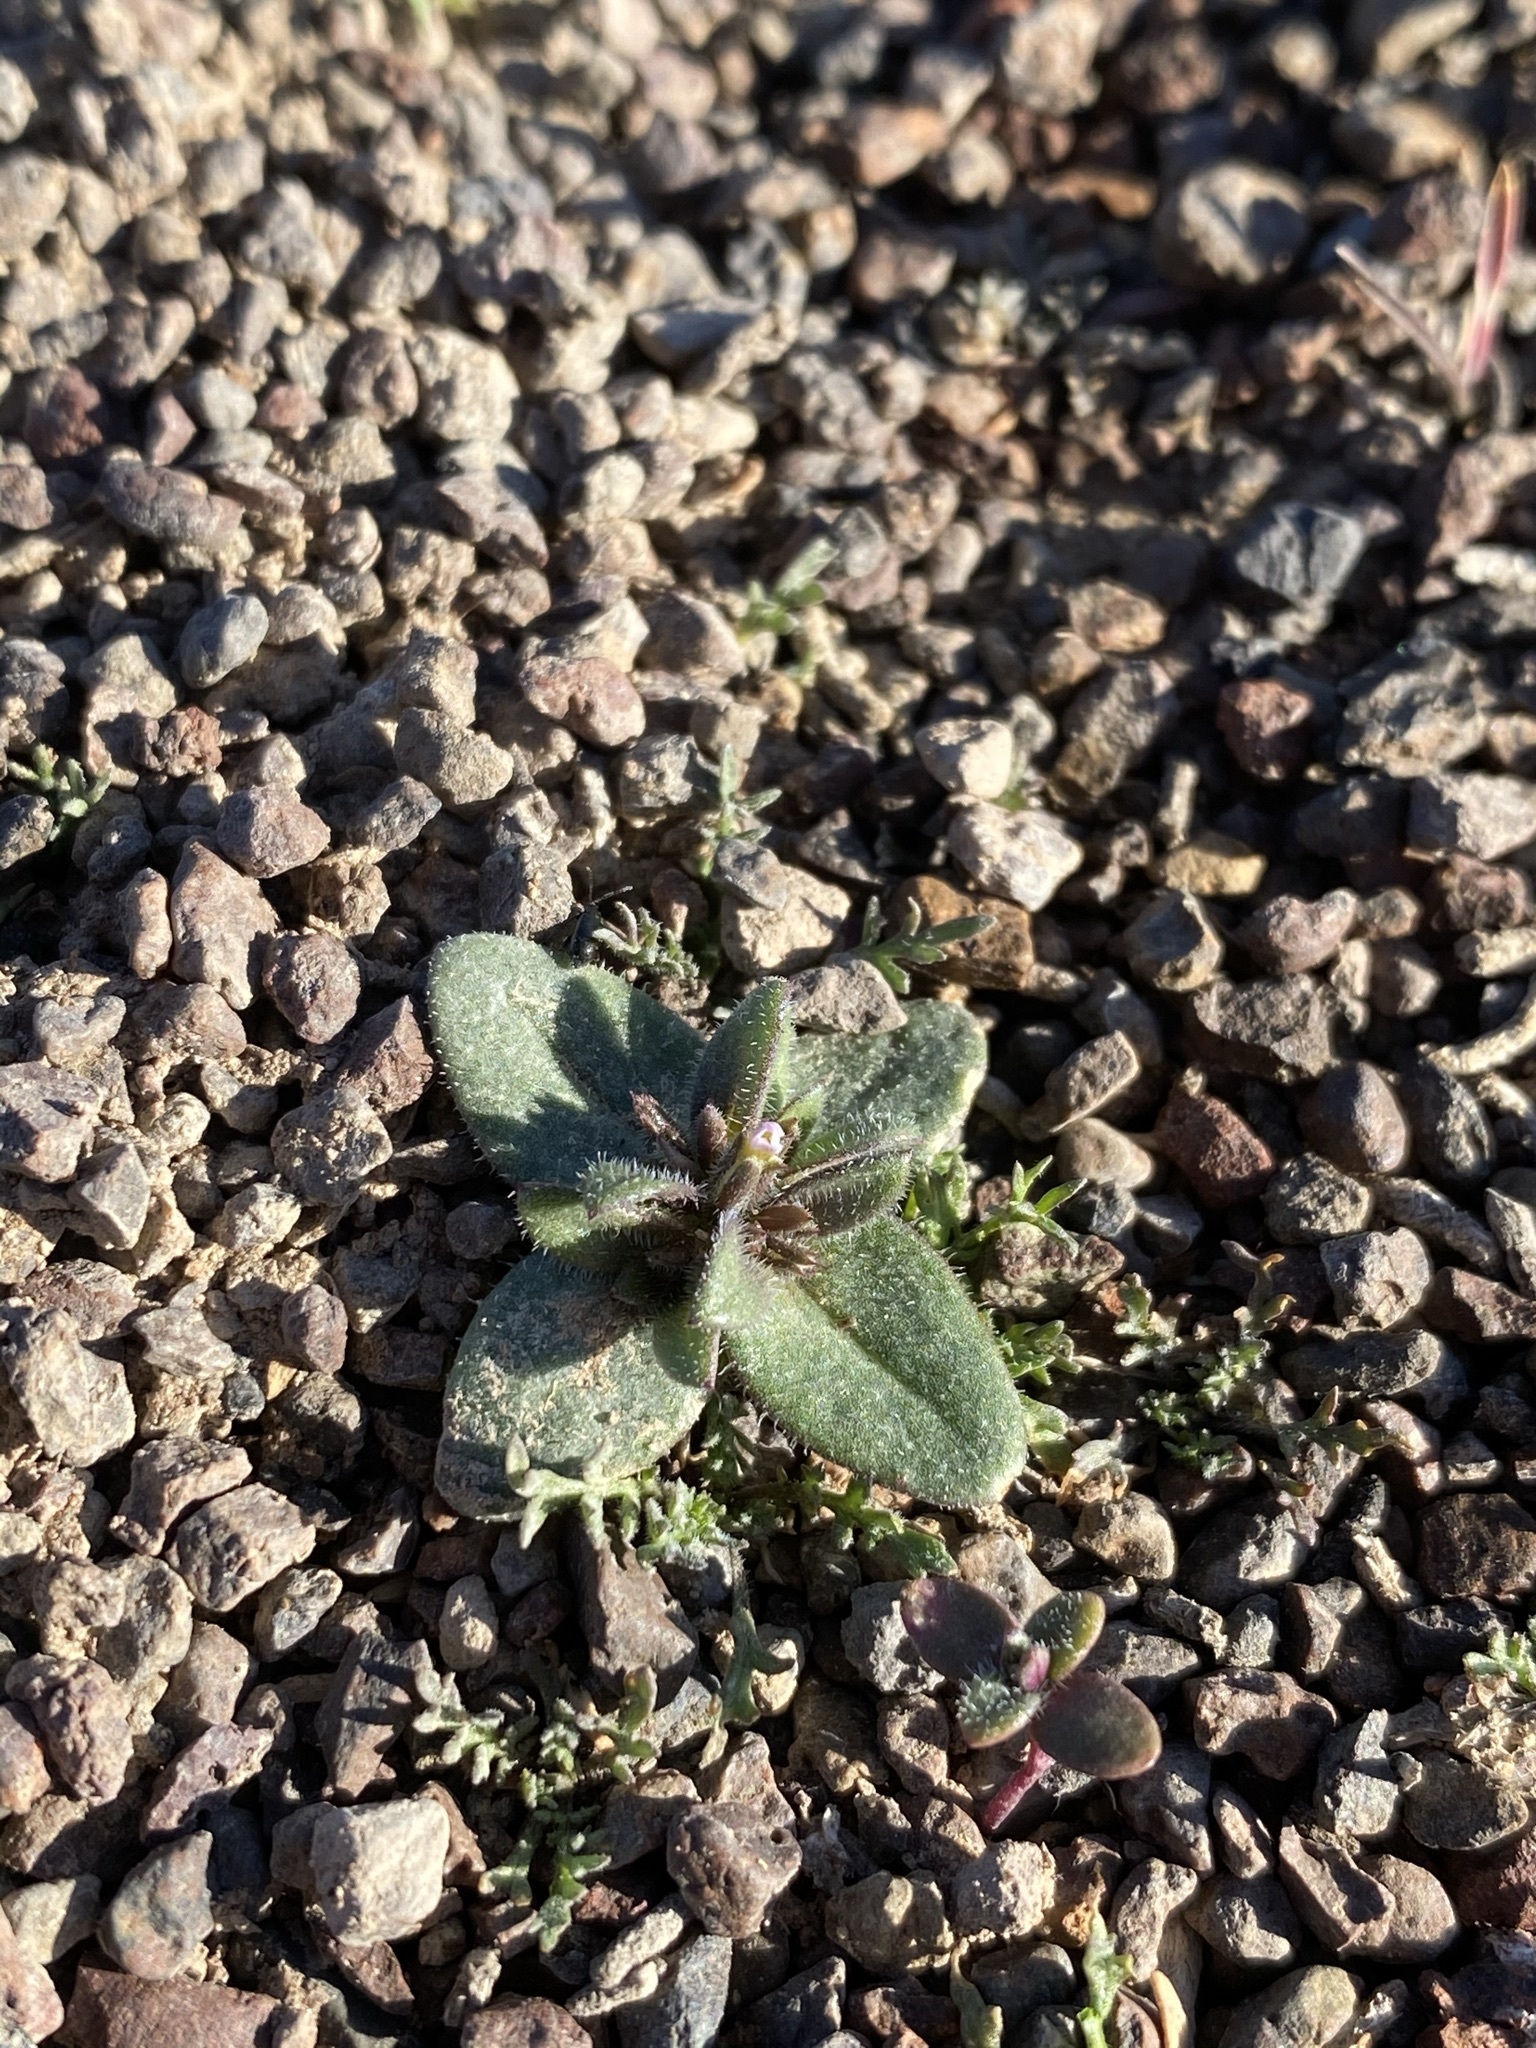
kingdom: Plantae
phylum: Tracheophyta
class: Magnoliopsida
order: Ericales
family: Polemoniaceae
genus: Phlox
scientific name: Phlox gracilis
